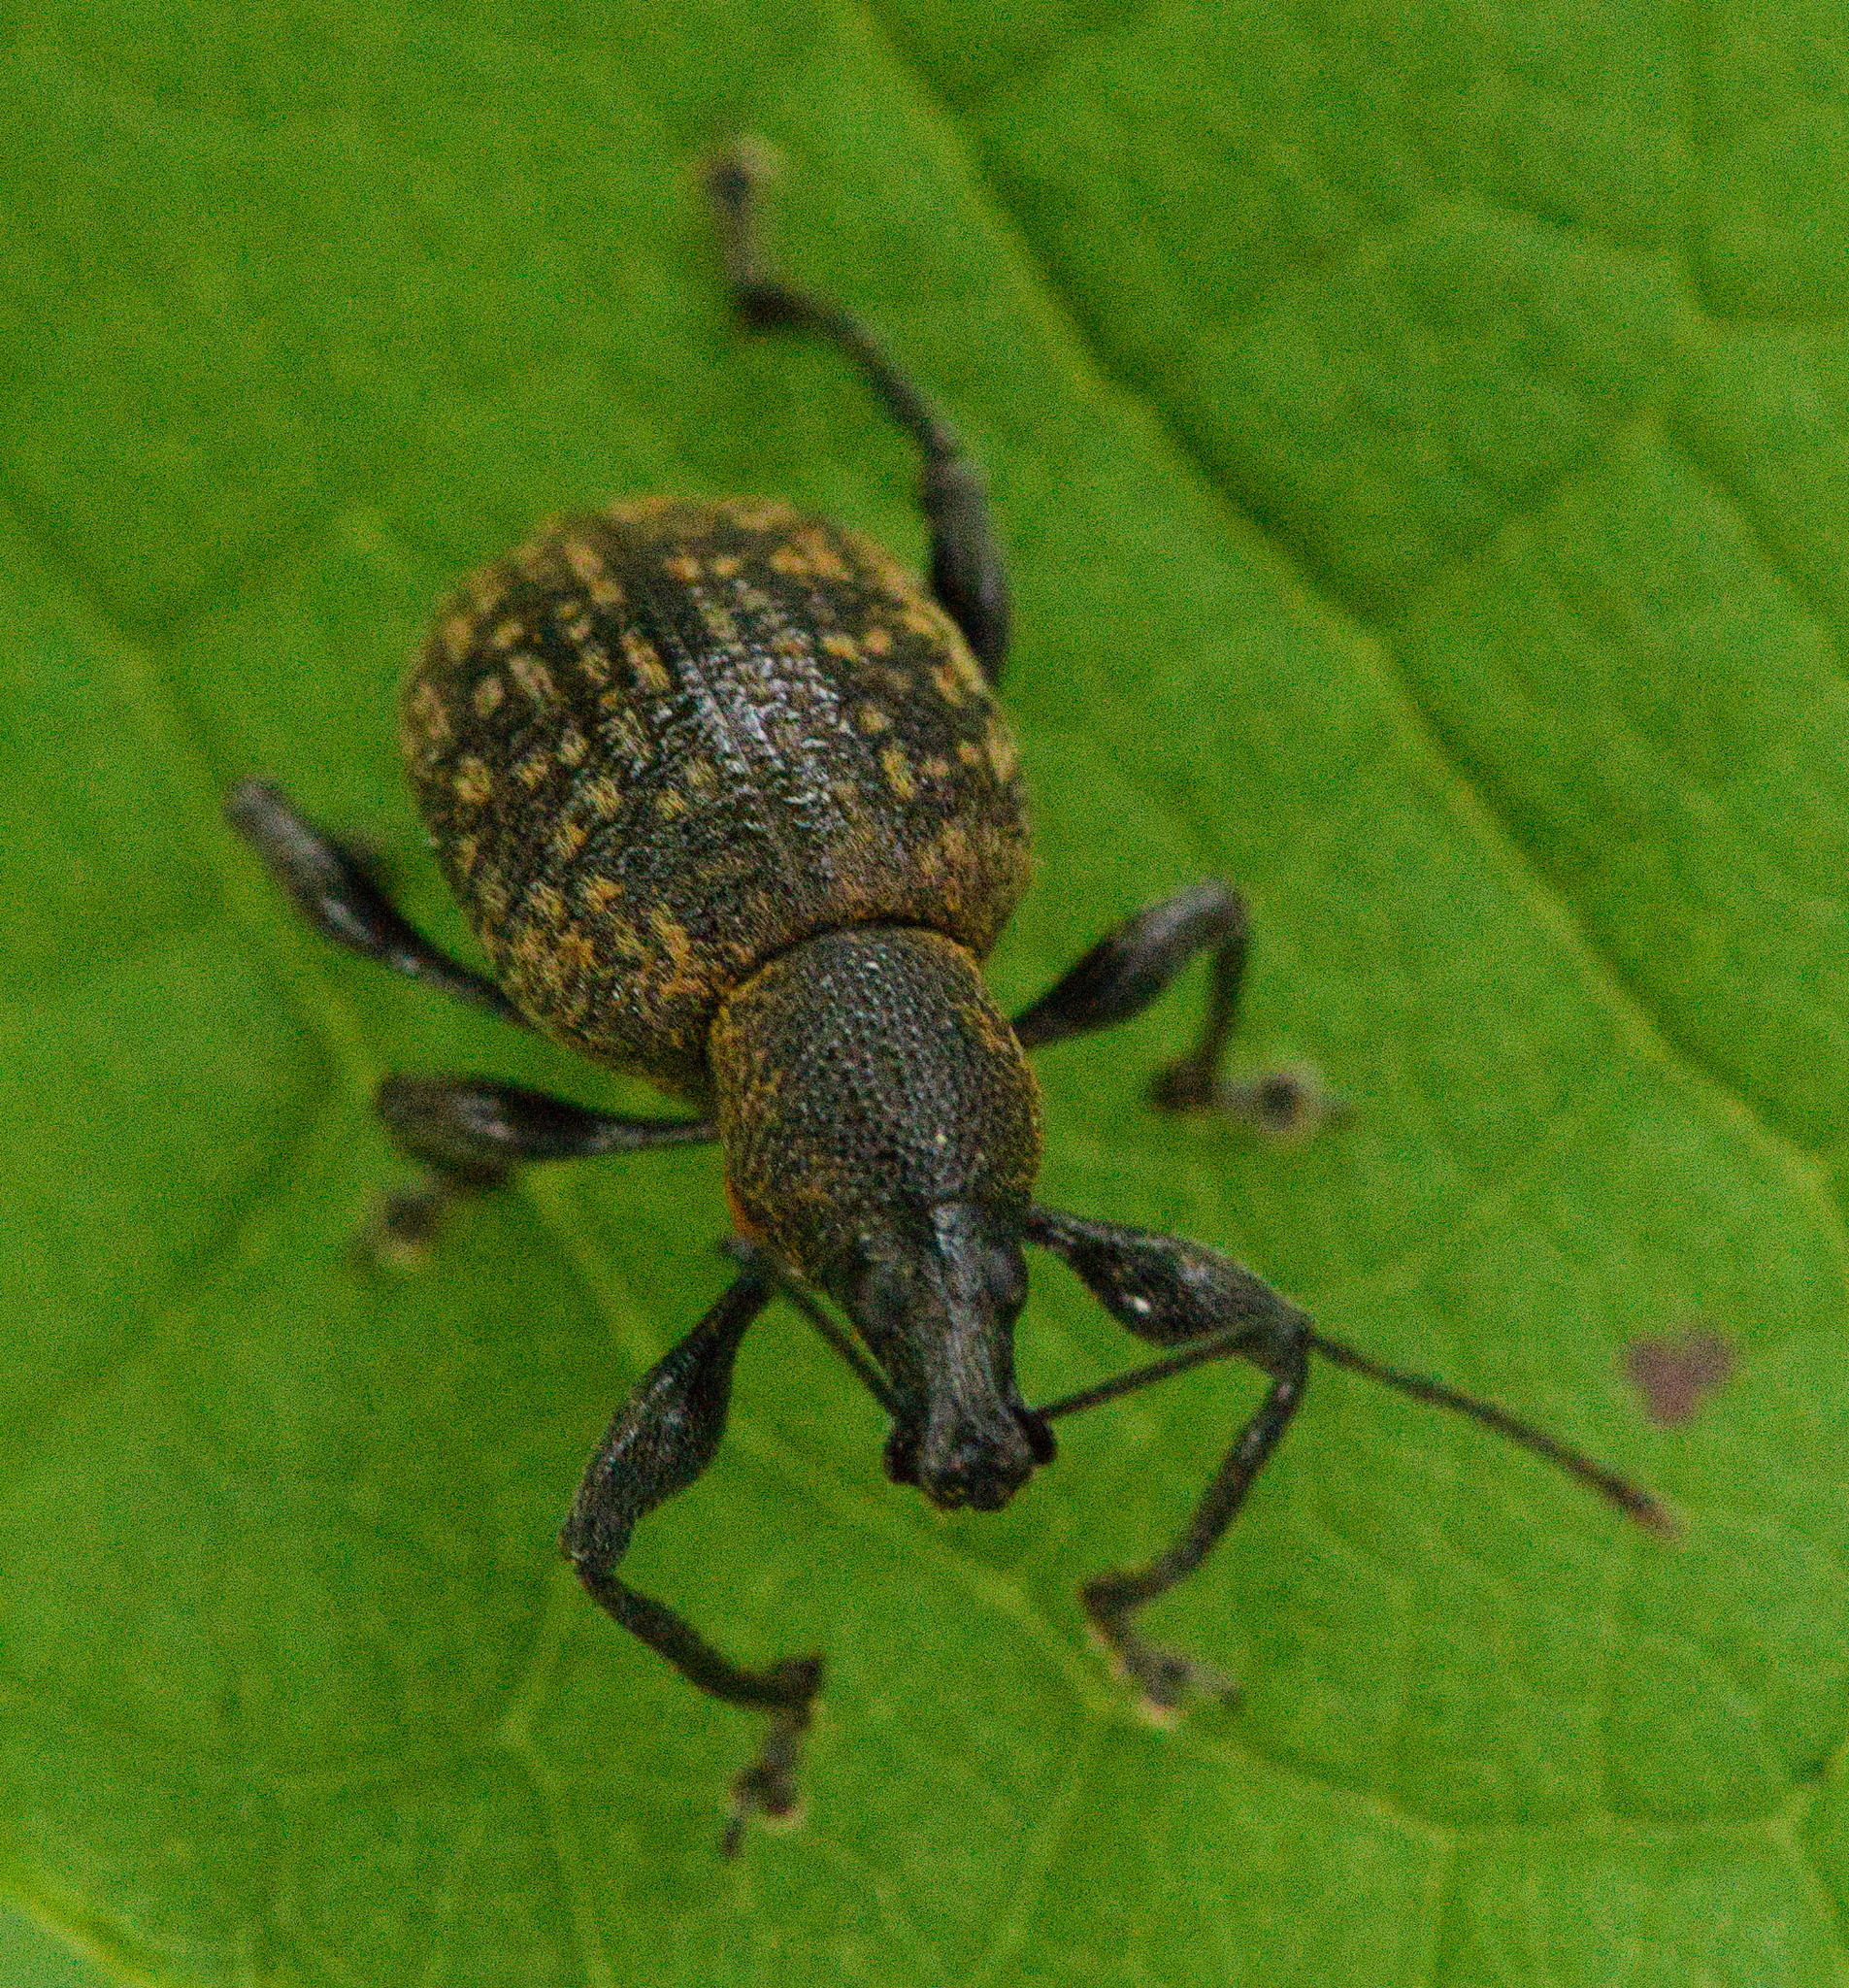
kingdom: Animalia
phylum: Arthropoda
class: Insecta
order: Coleoptera
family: Curculionidae
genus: Otiorhynchus
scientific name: Otiorhynchus armadillo
